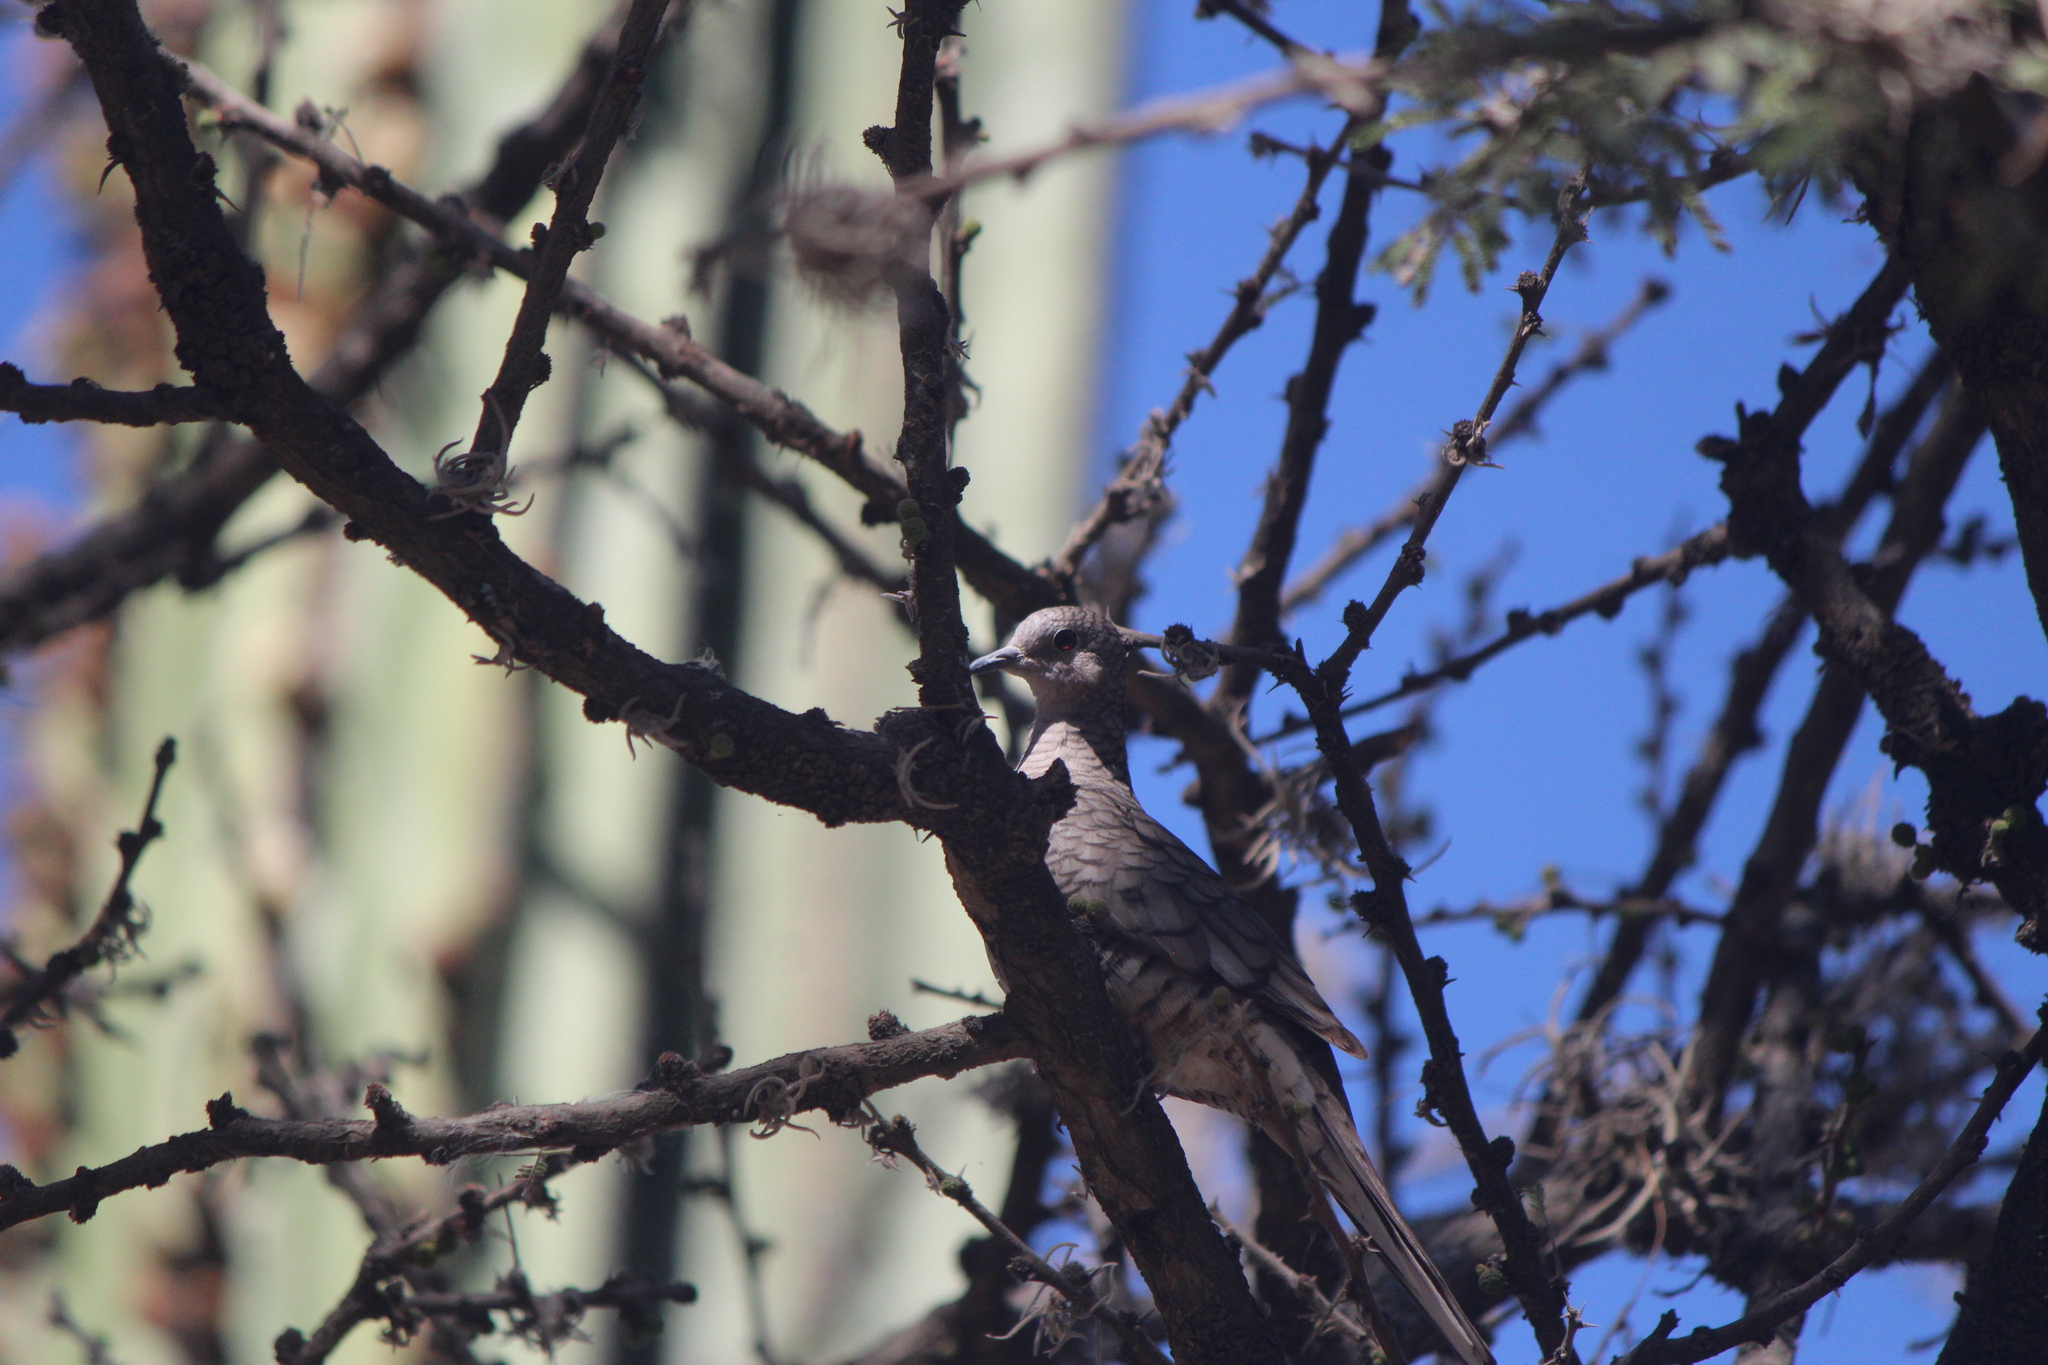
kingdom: Animalia
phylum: Chordata
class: Aves
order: Columbiformes
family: Columbidae
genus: Columbina
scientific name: Columbina inca
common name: Inca dove
